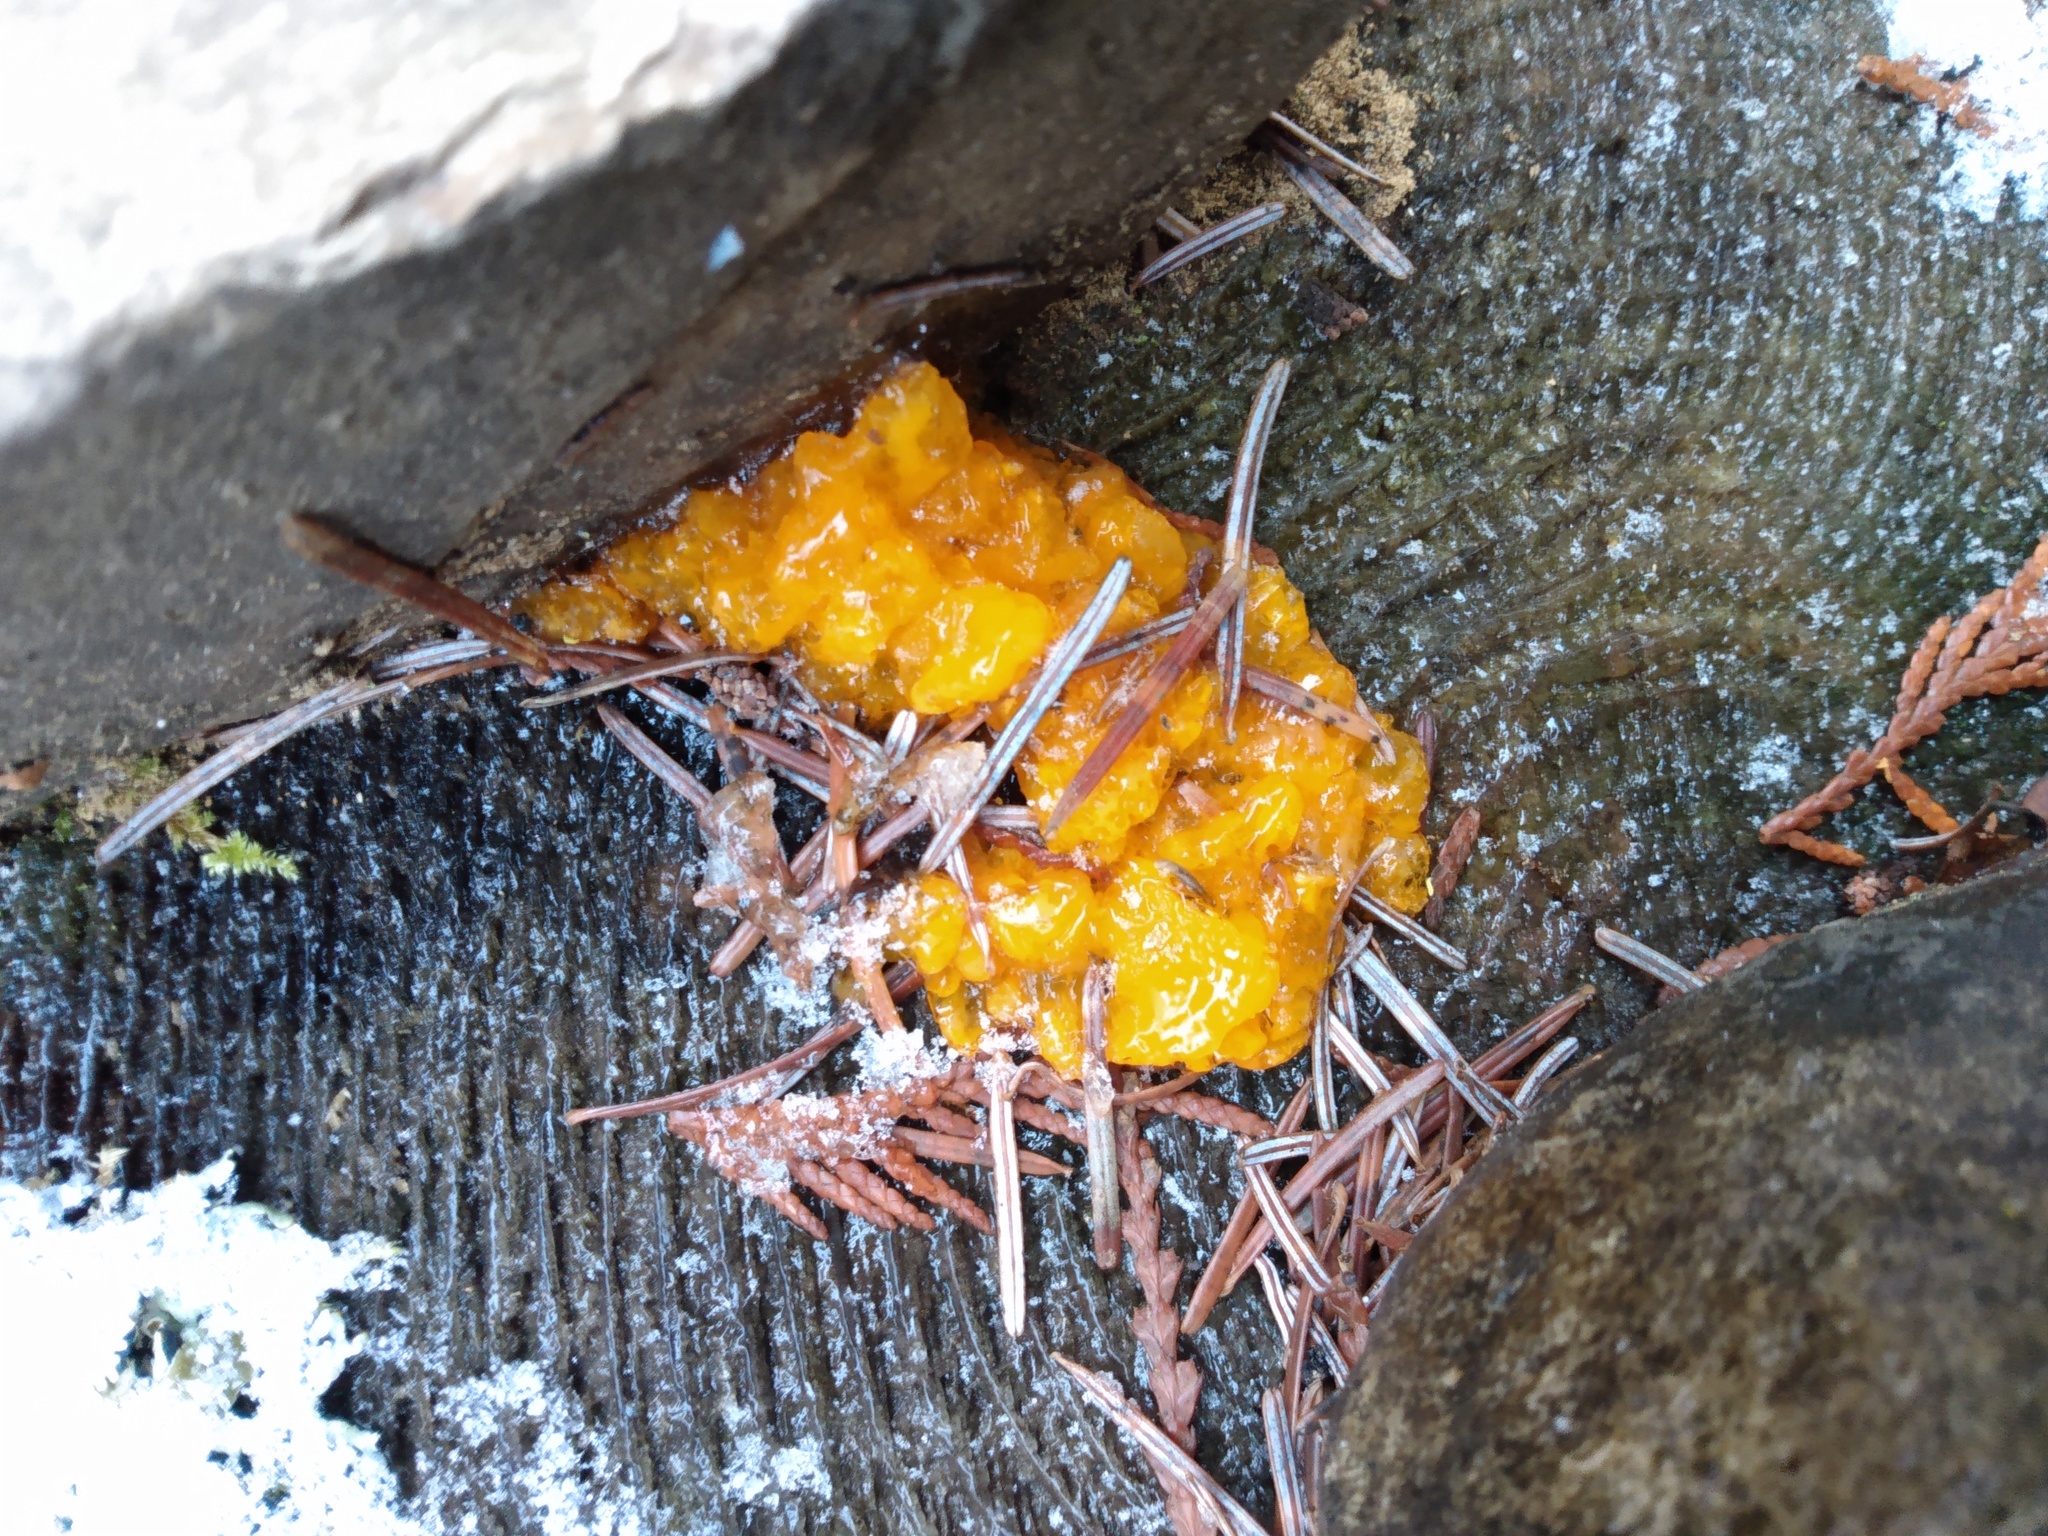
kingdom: Fungi
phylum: Basidiomycota
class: Dacrymycetes
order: Dacrymycetales
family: Dacrymycetaceae
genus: Dacrymyces
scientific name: Dacrymyces chrysospermus
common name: Orange jelly spot
